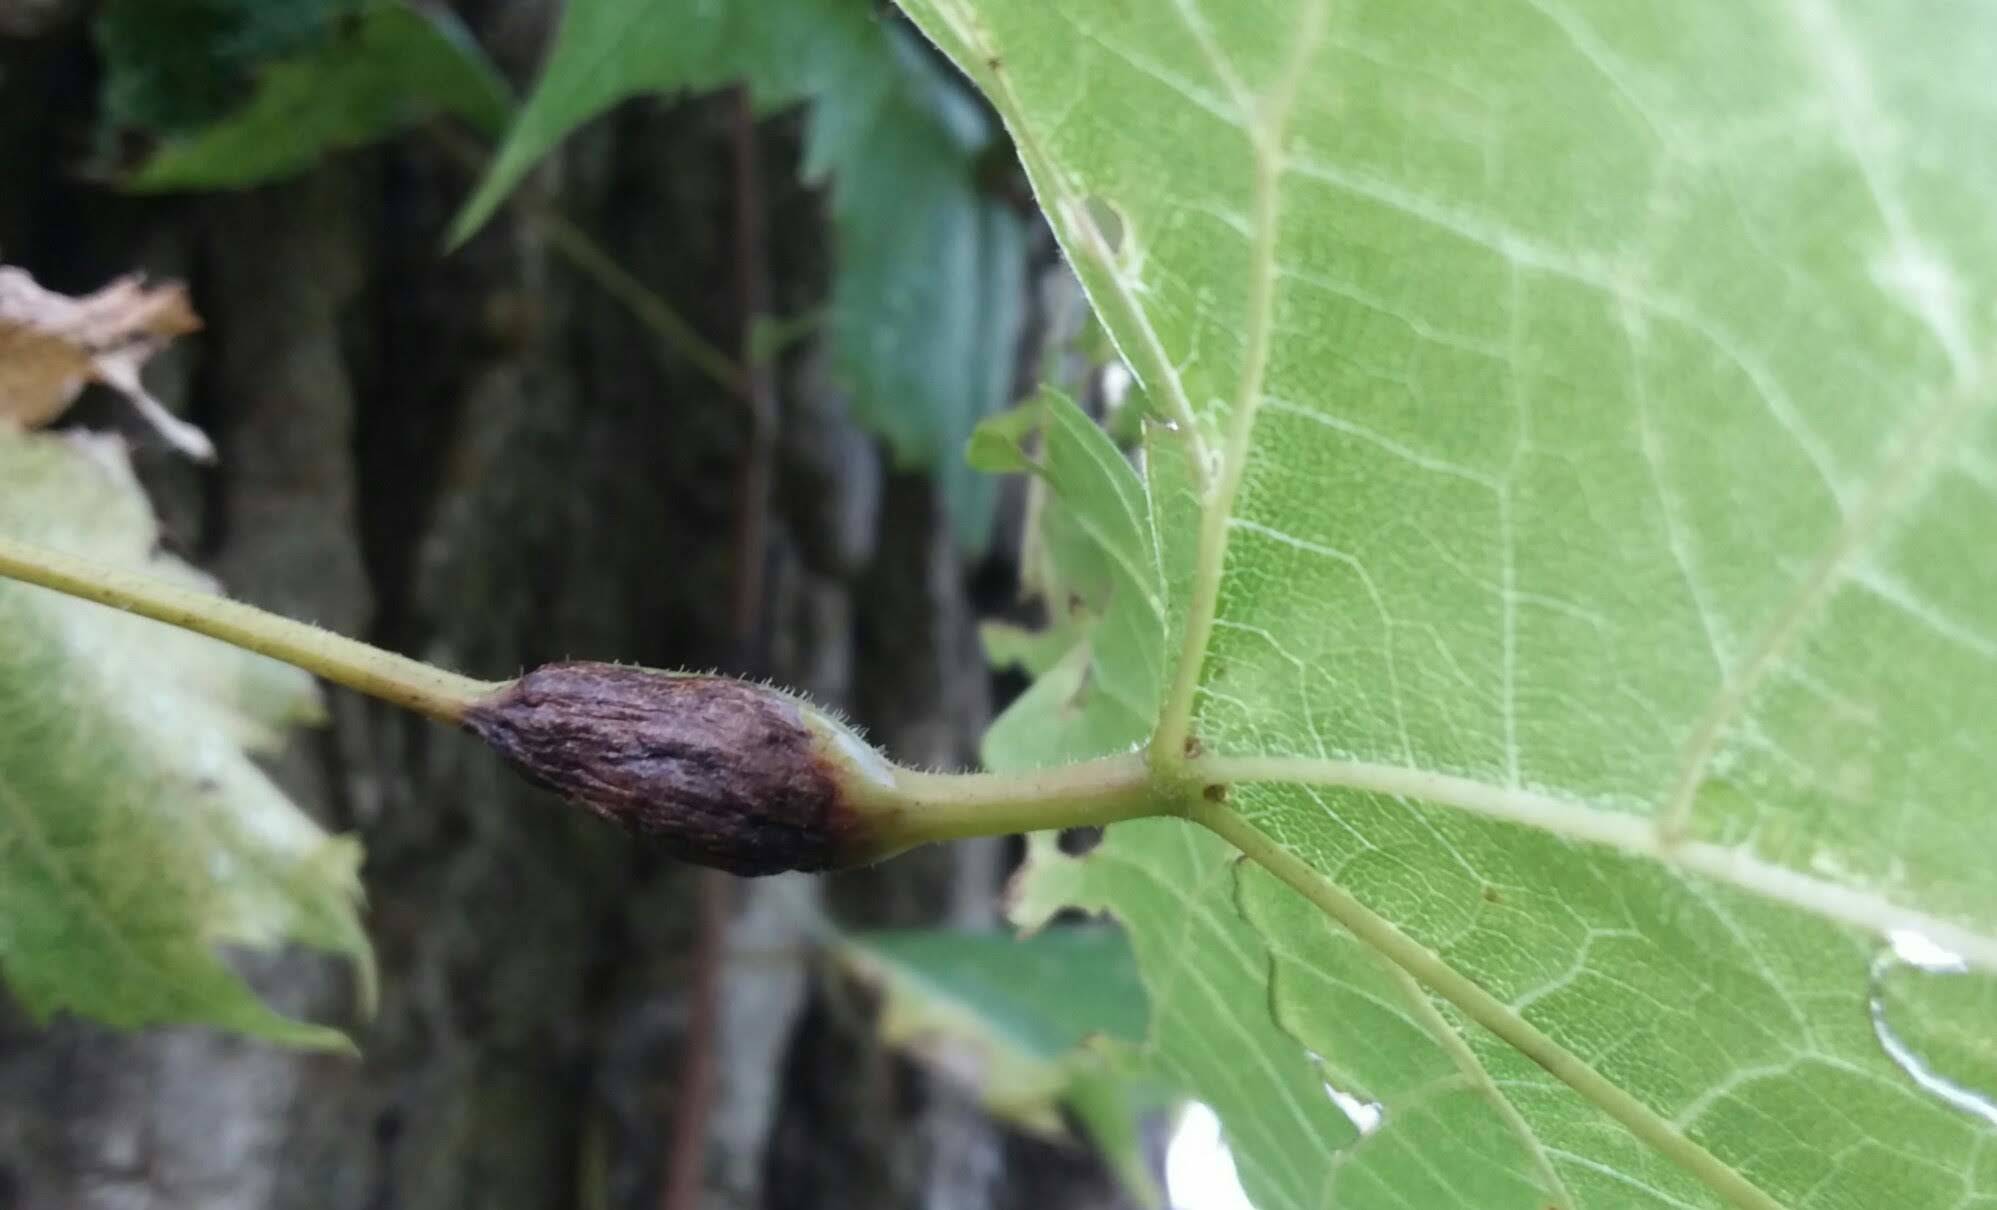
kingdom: Animalia
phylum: Arthropoda
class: Insecta
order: Diptera
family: Cecidomyiidae
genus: Neolasioptera
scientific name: Neolasioptera vitinea
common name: Grape leaf petiole gall
